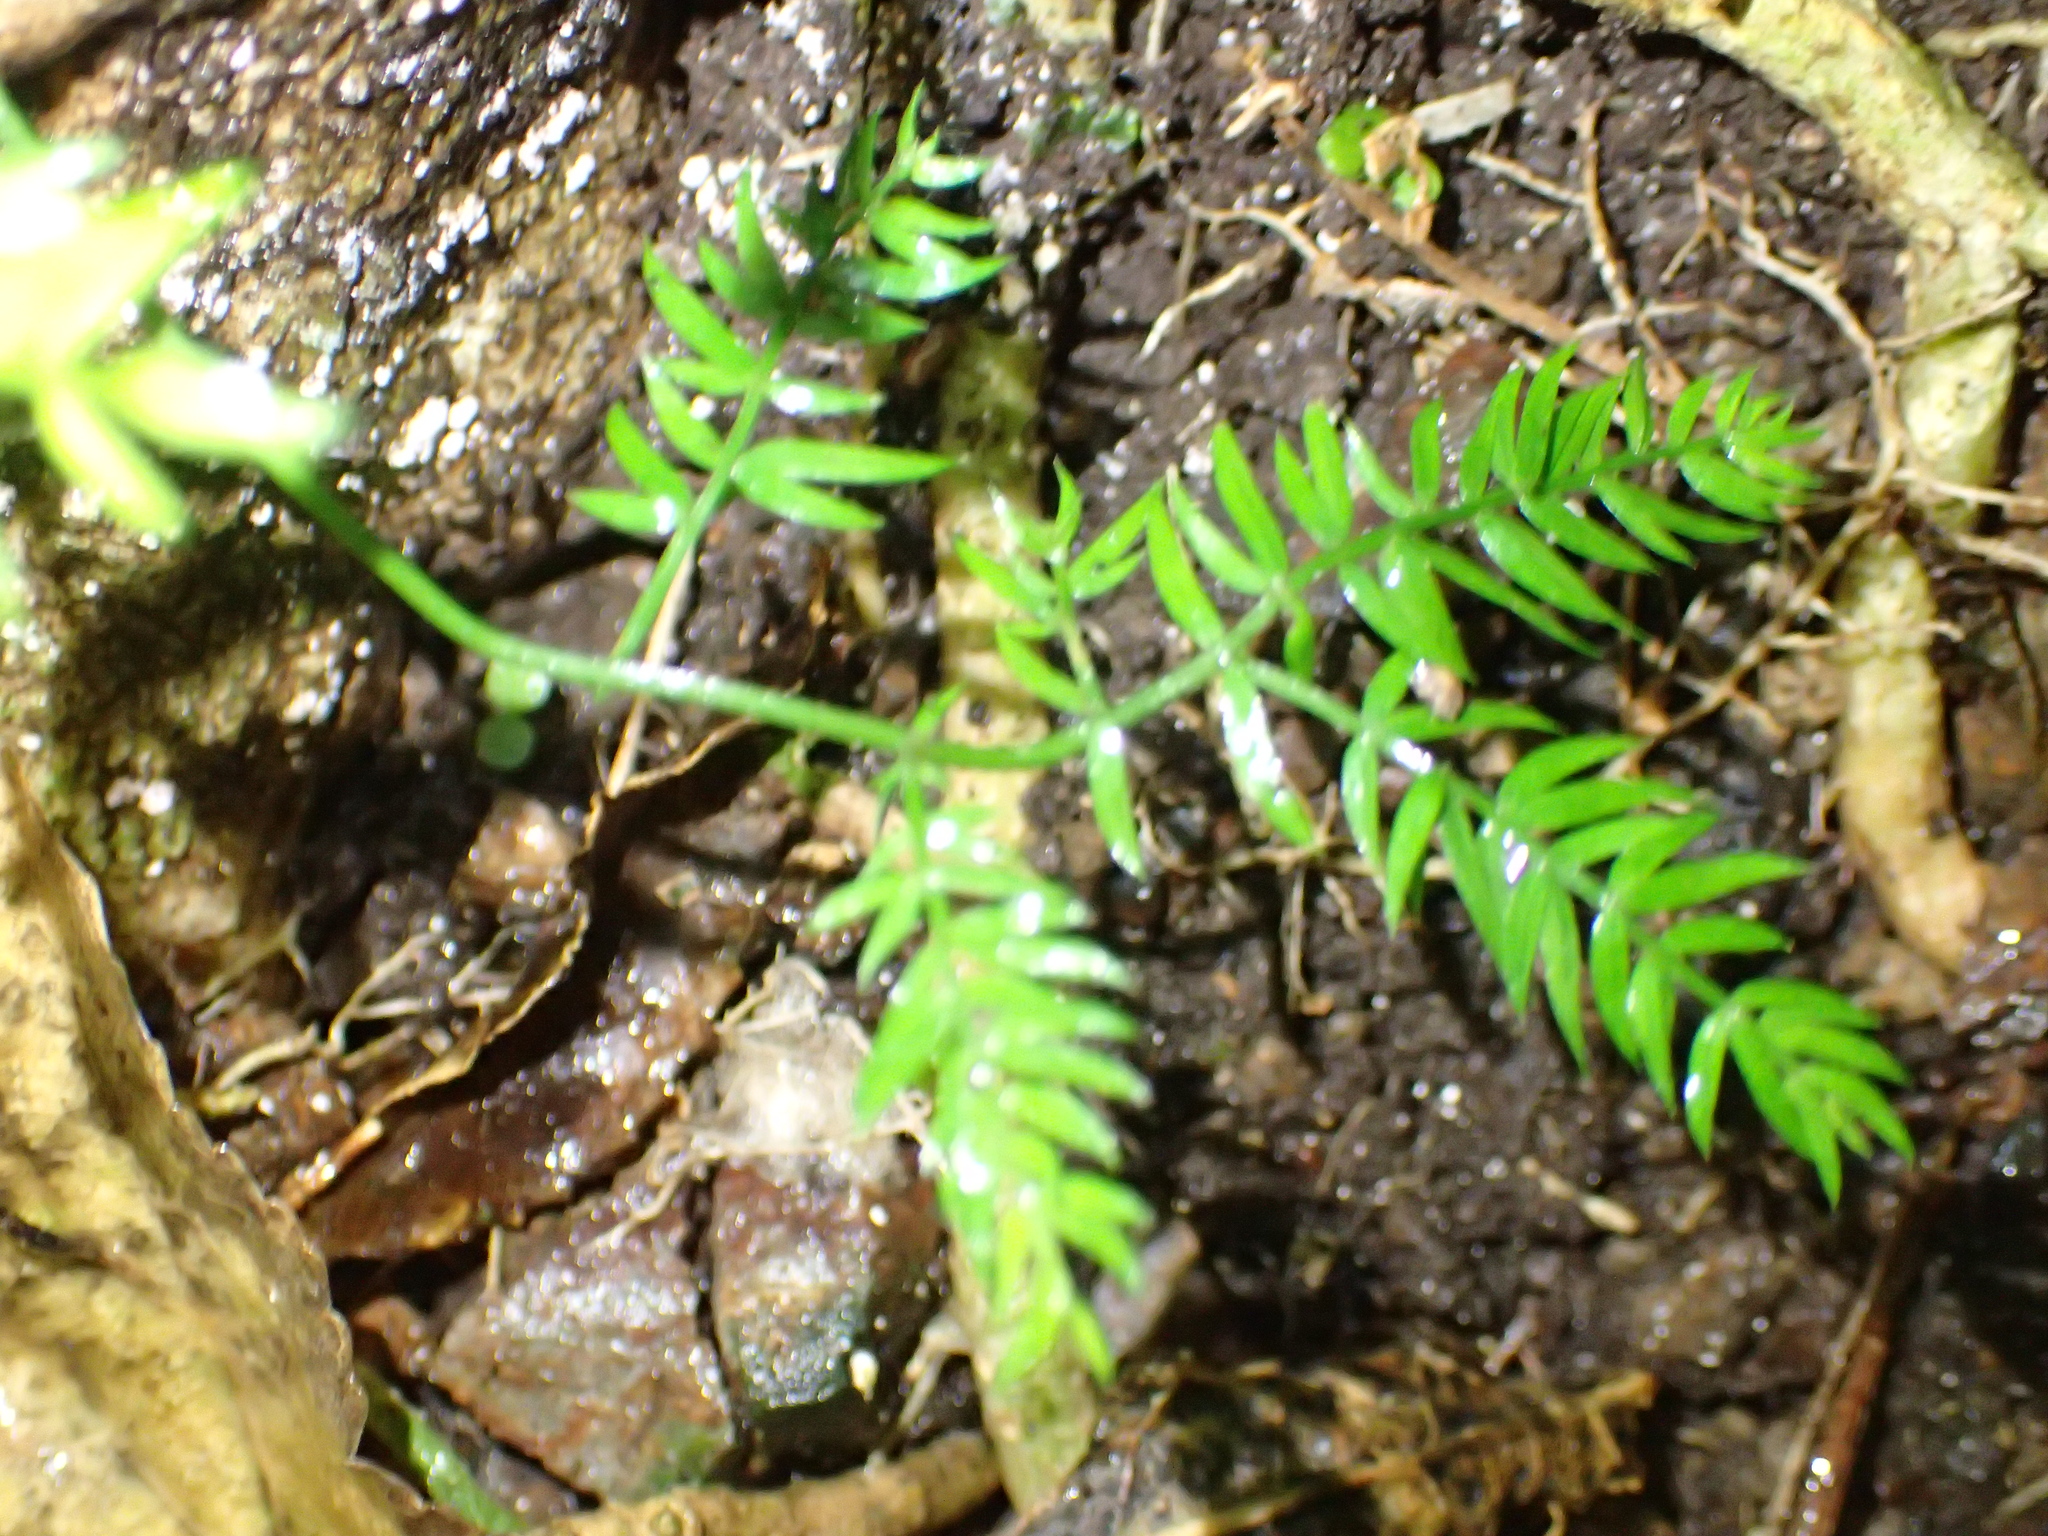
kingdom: Plantae
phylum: Tracheophyta
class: Liliopsida
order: Asparagales
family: Asparagaceae
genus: Asparagus
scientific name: Asparagus scandens
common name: Asparagus-fern
